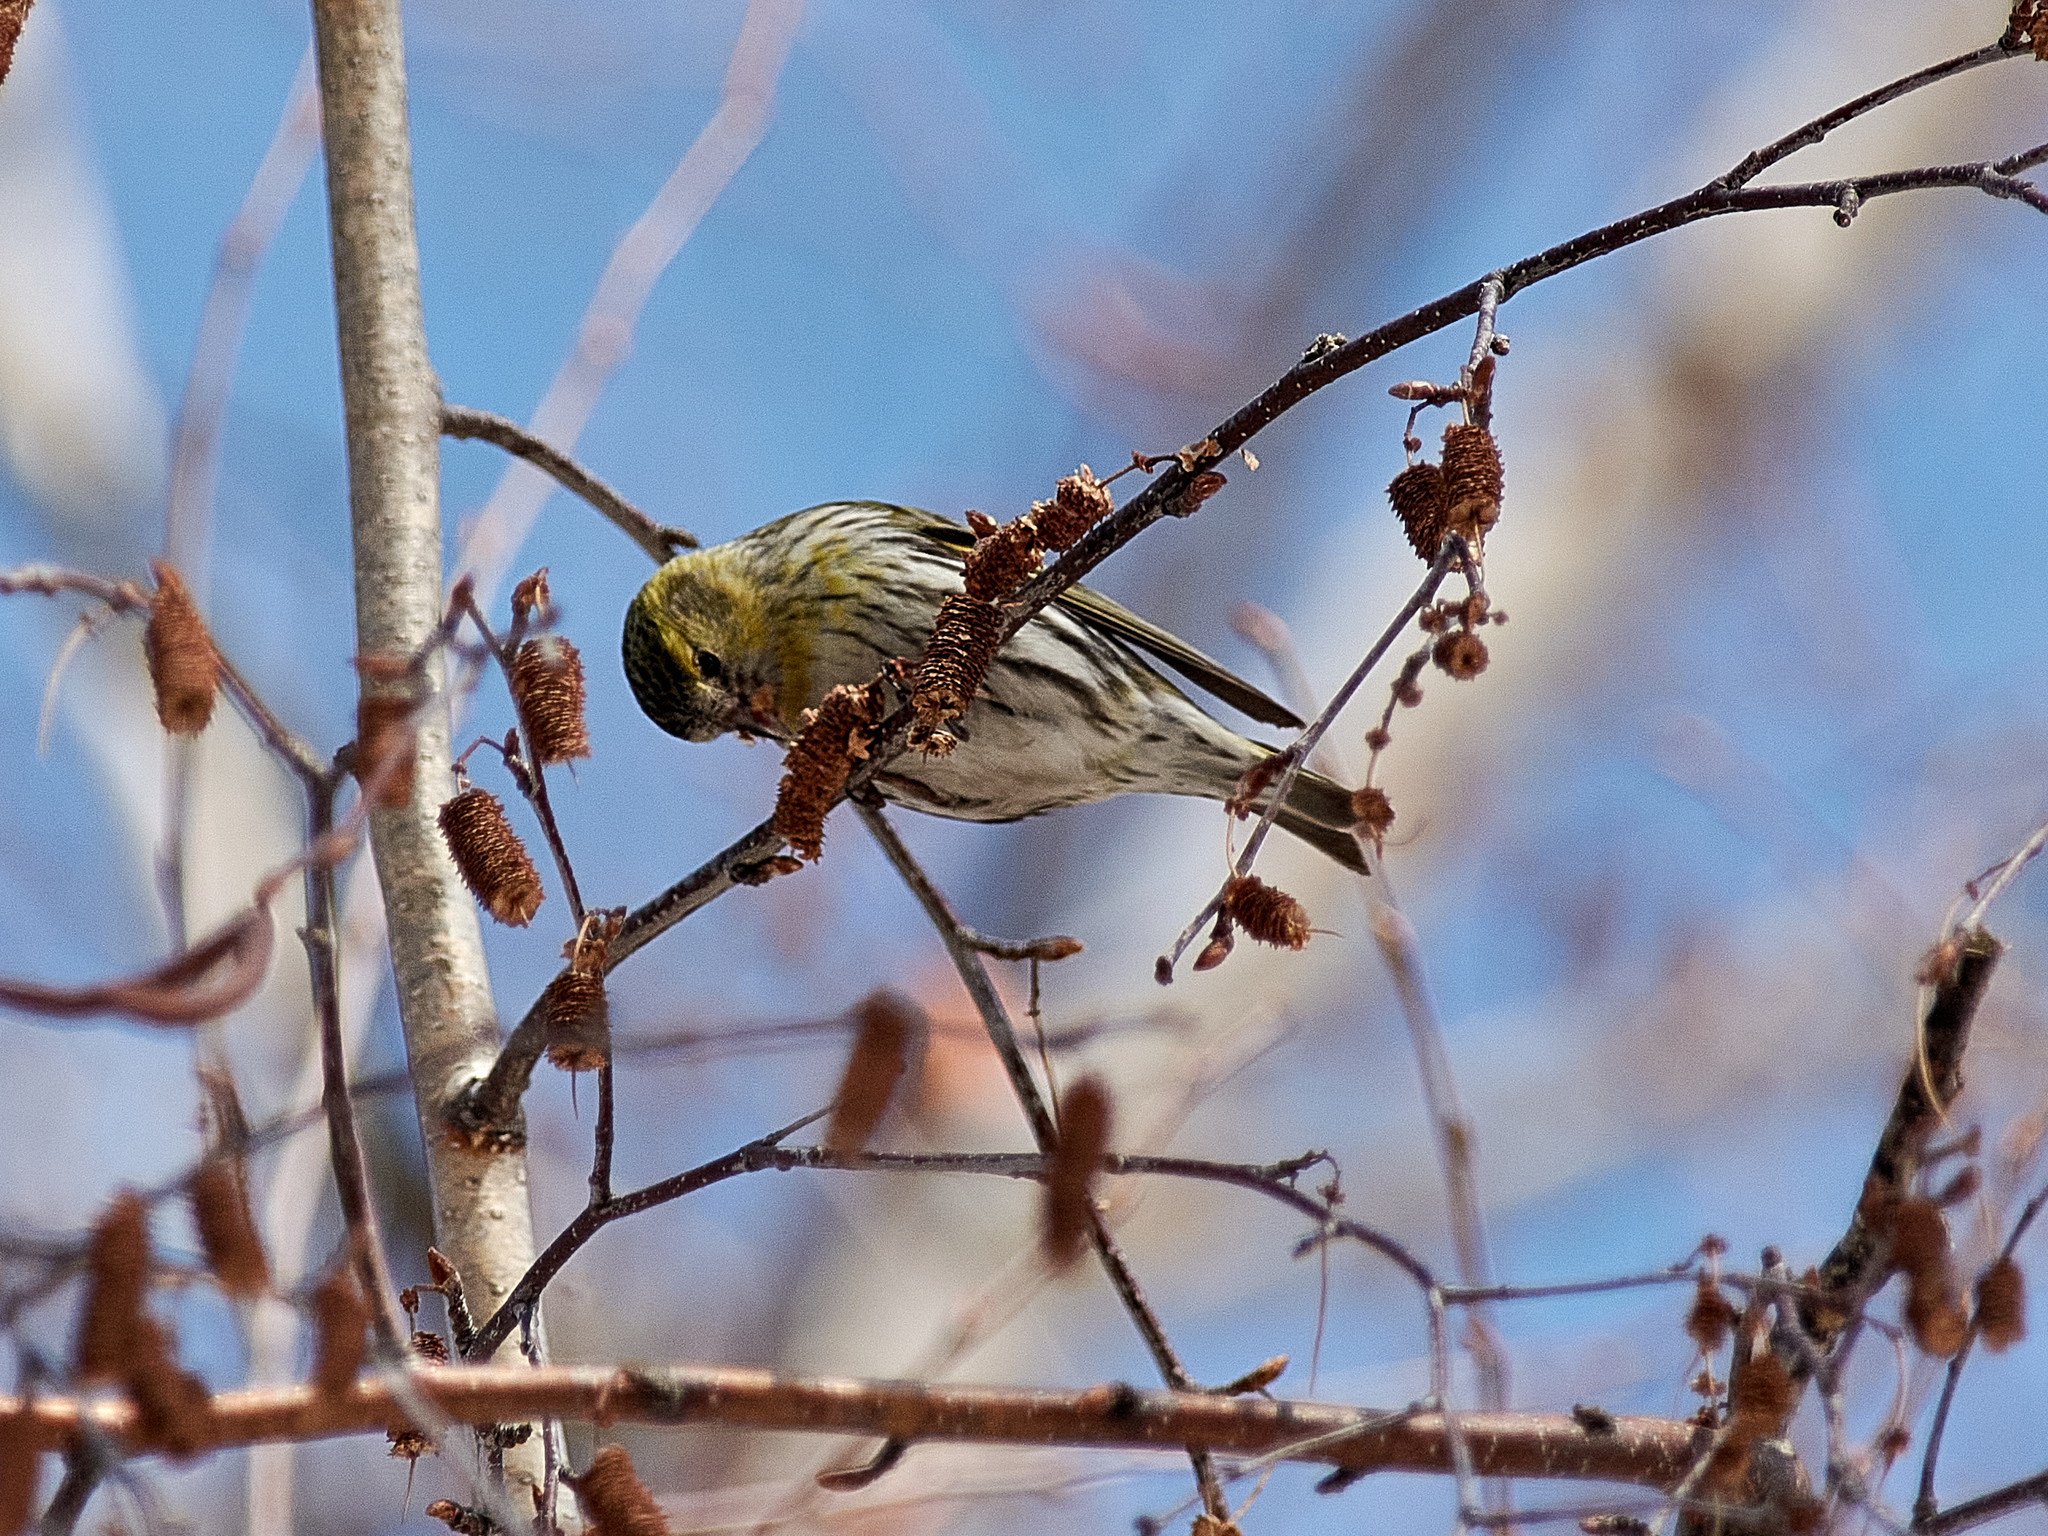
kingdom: Animalia
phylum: Chordata
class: Aves
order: Passeriformes
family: Fringillidae
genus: Spinus
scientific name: Spinus spinus
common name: Eurasian siskin
